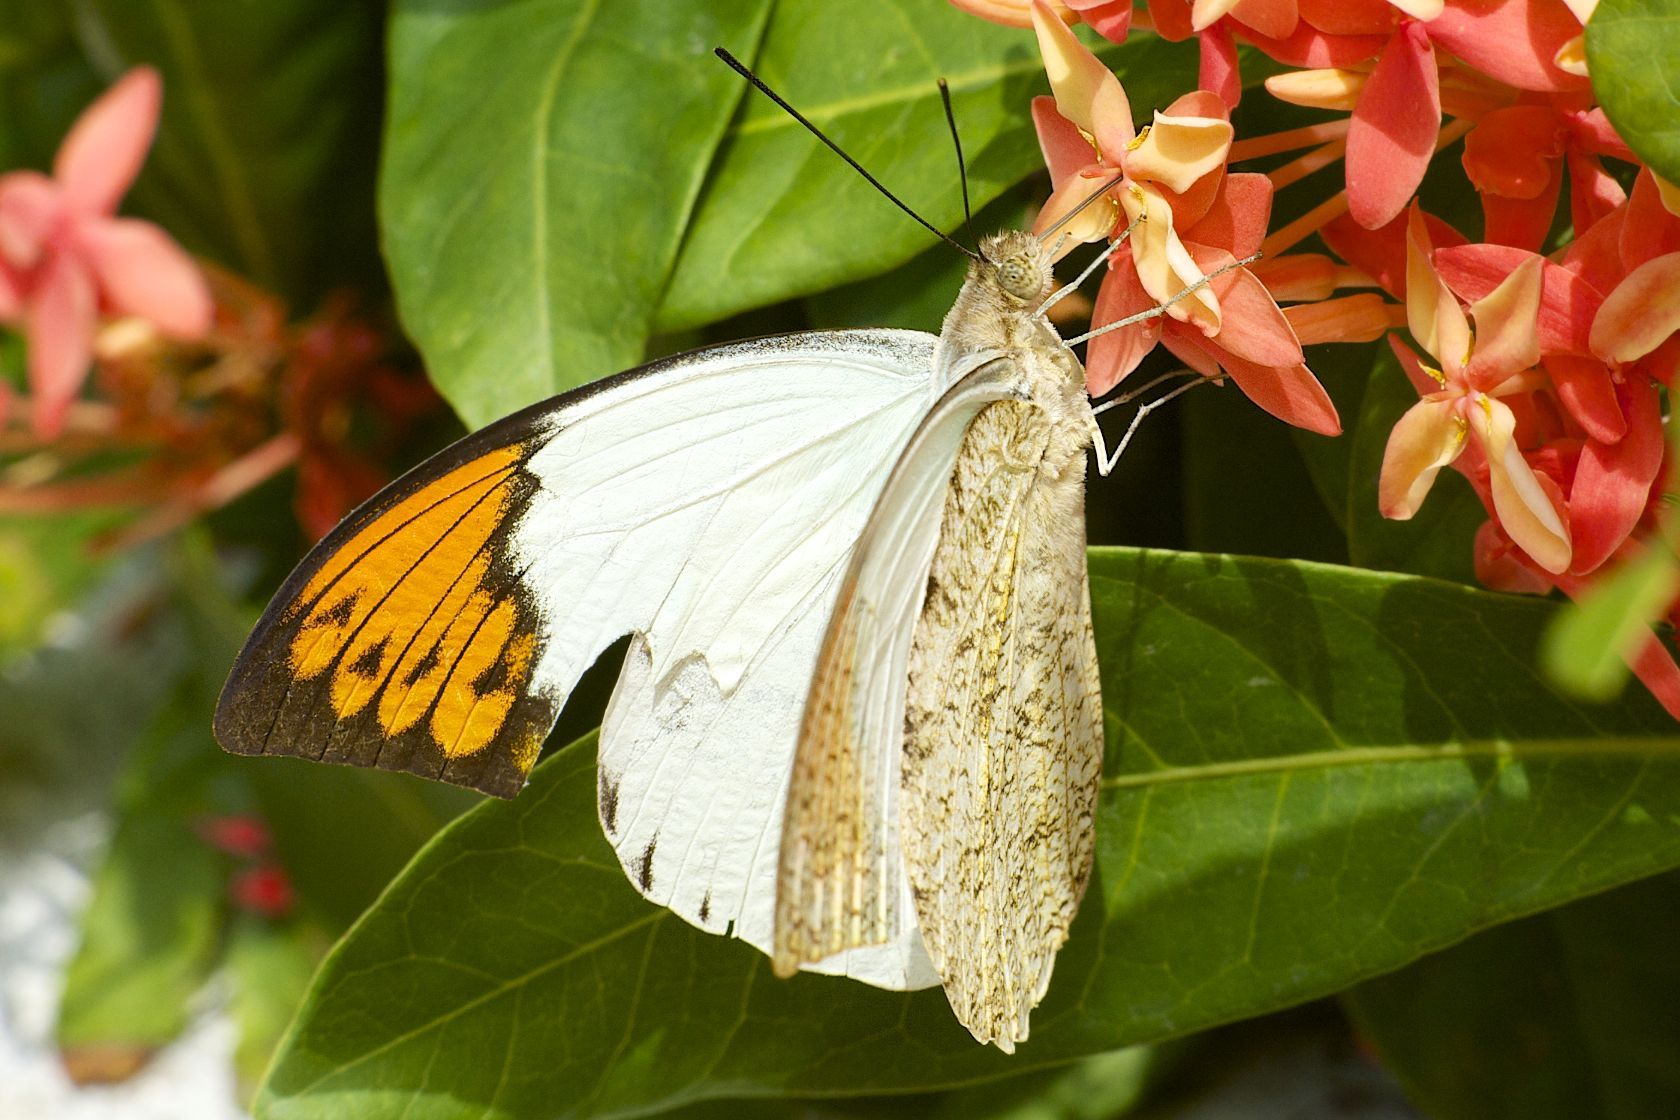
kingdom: Animalia
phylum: Arthropoda
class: Insecta
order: Lepidoptera
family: Pieridae
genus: Hebomoia
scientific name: Hebomoia glaucippe
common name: Great orange tip
